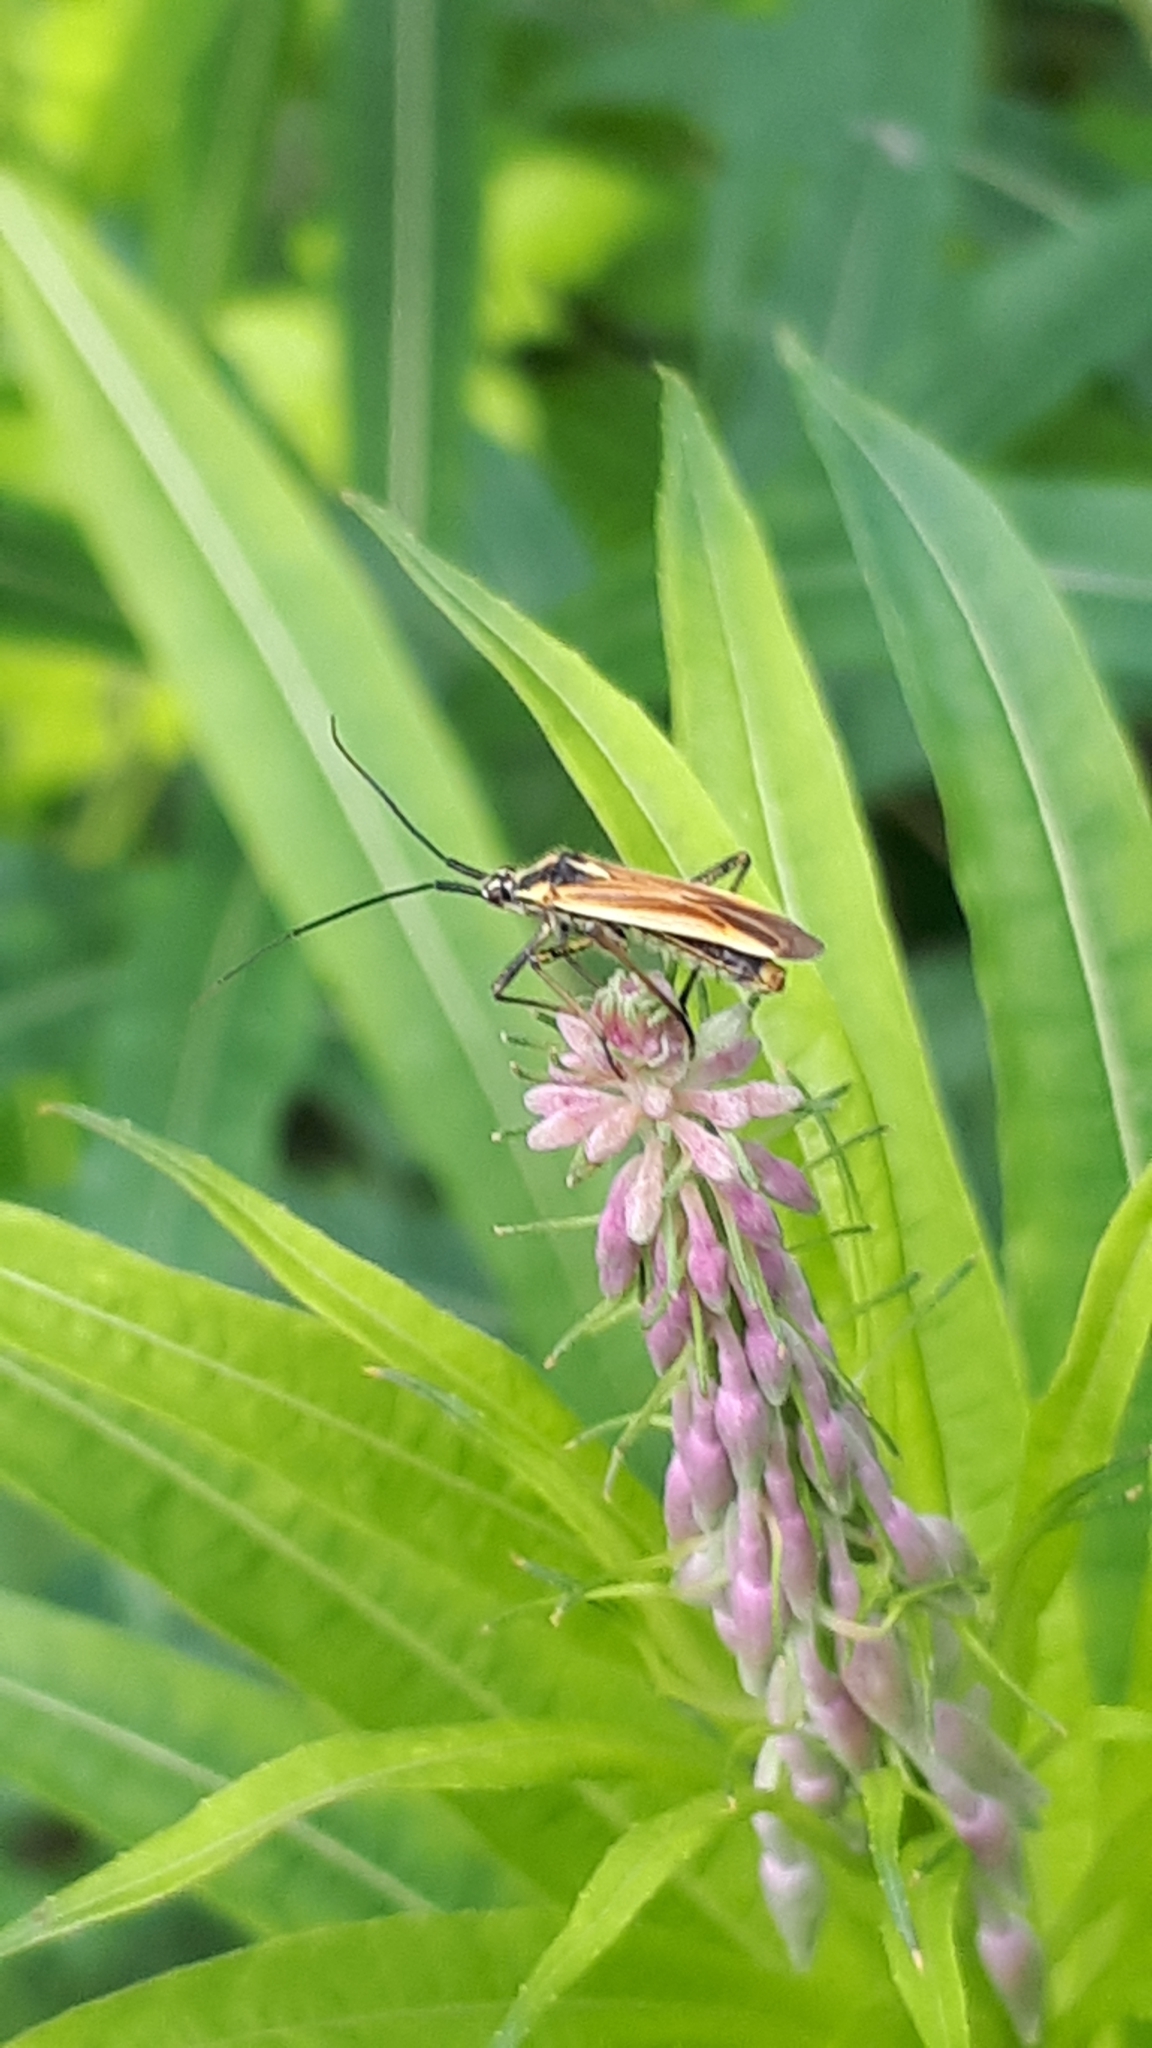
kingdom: Animalia
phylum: Arthropoda
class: Insecta
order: Hemiptera
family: Miridae
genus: Leptopterna
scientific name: Leptopterna dolabrata
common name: Meadow plant bug
